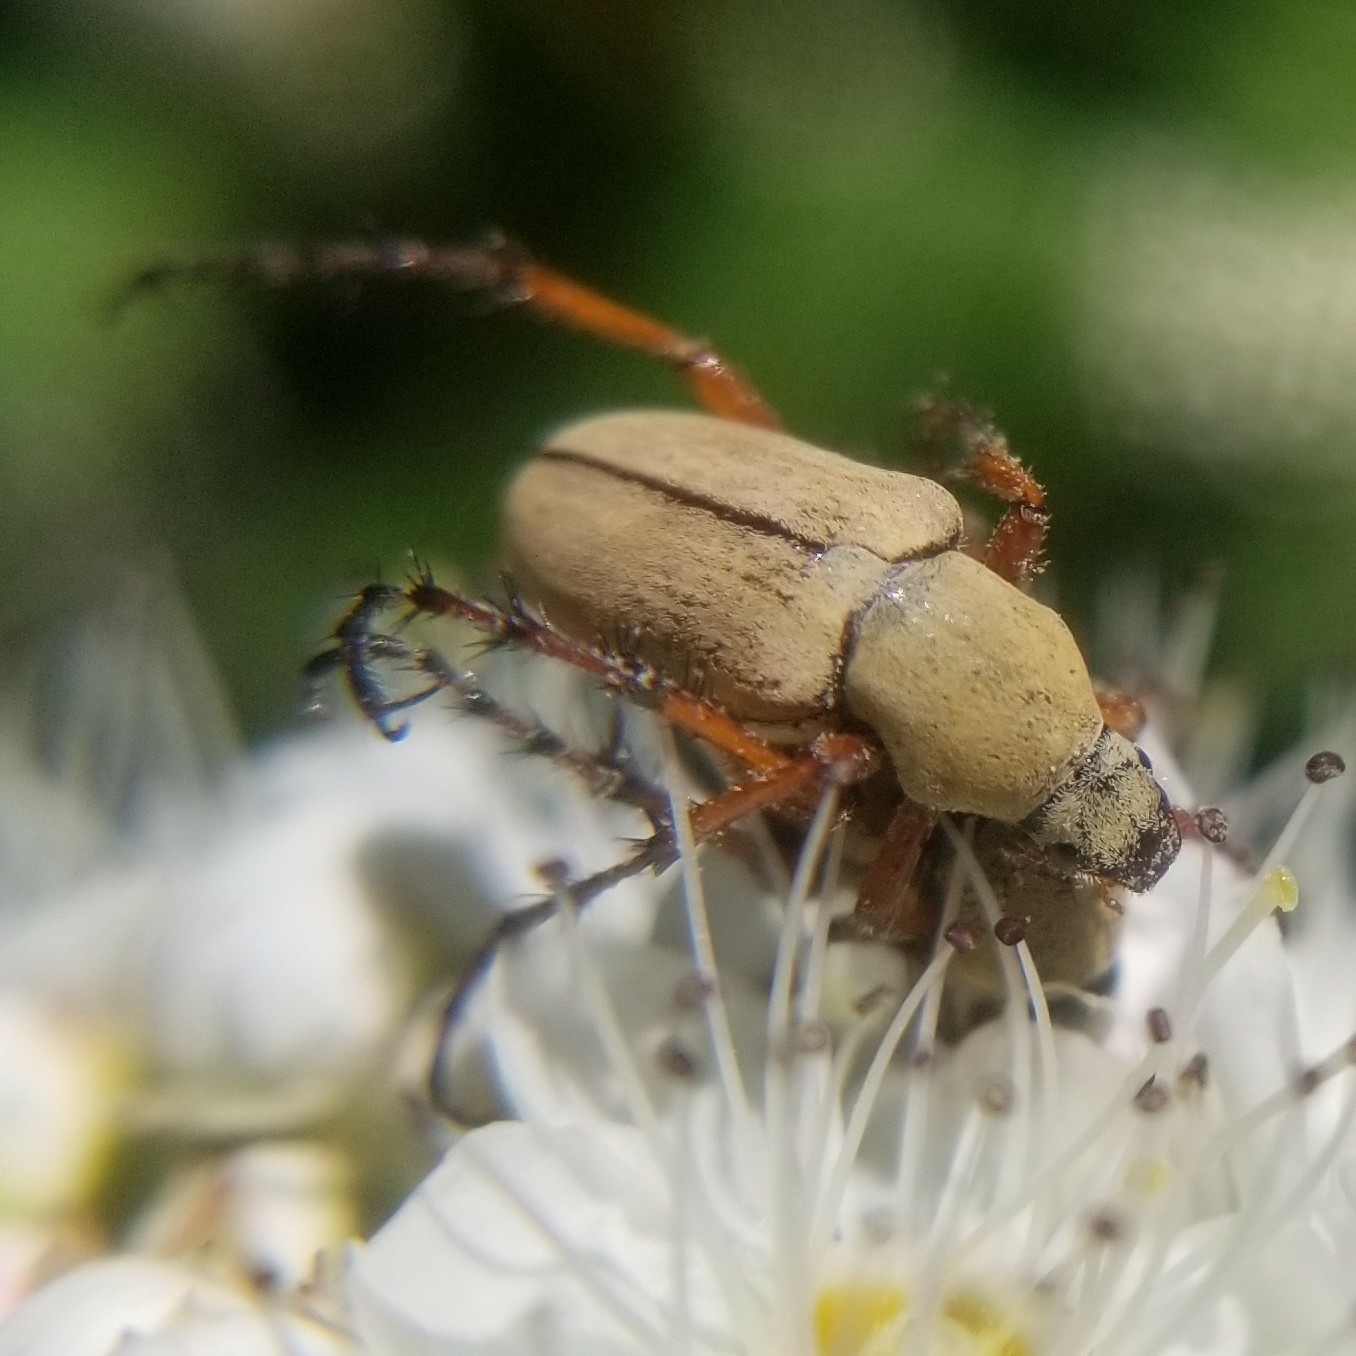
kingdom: Animalia
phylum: Arthropoda
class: Insecta
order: Coleoptera
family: Scarabaeidae
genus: Macrodactylus
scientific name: Macrodactylus subspinosus
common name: American rose chafer
